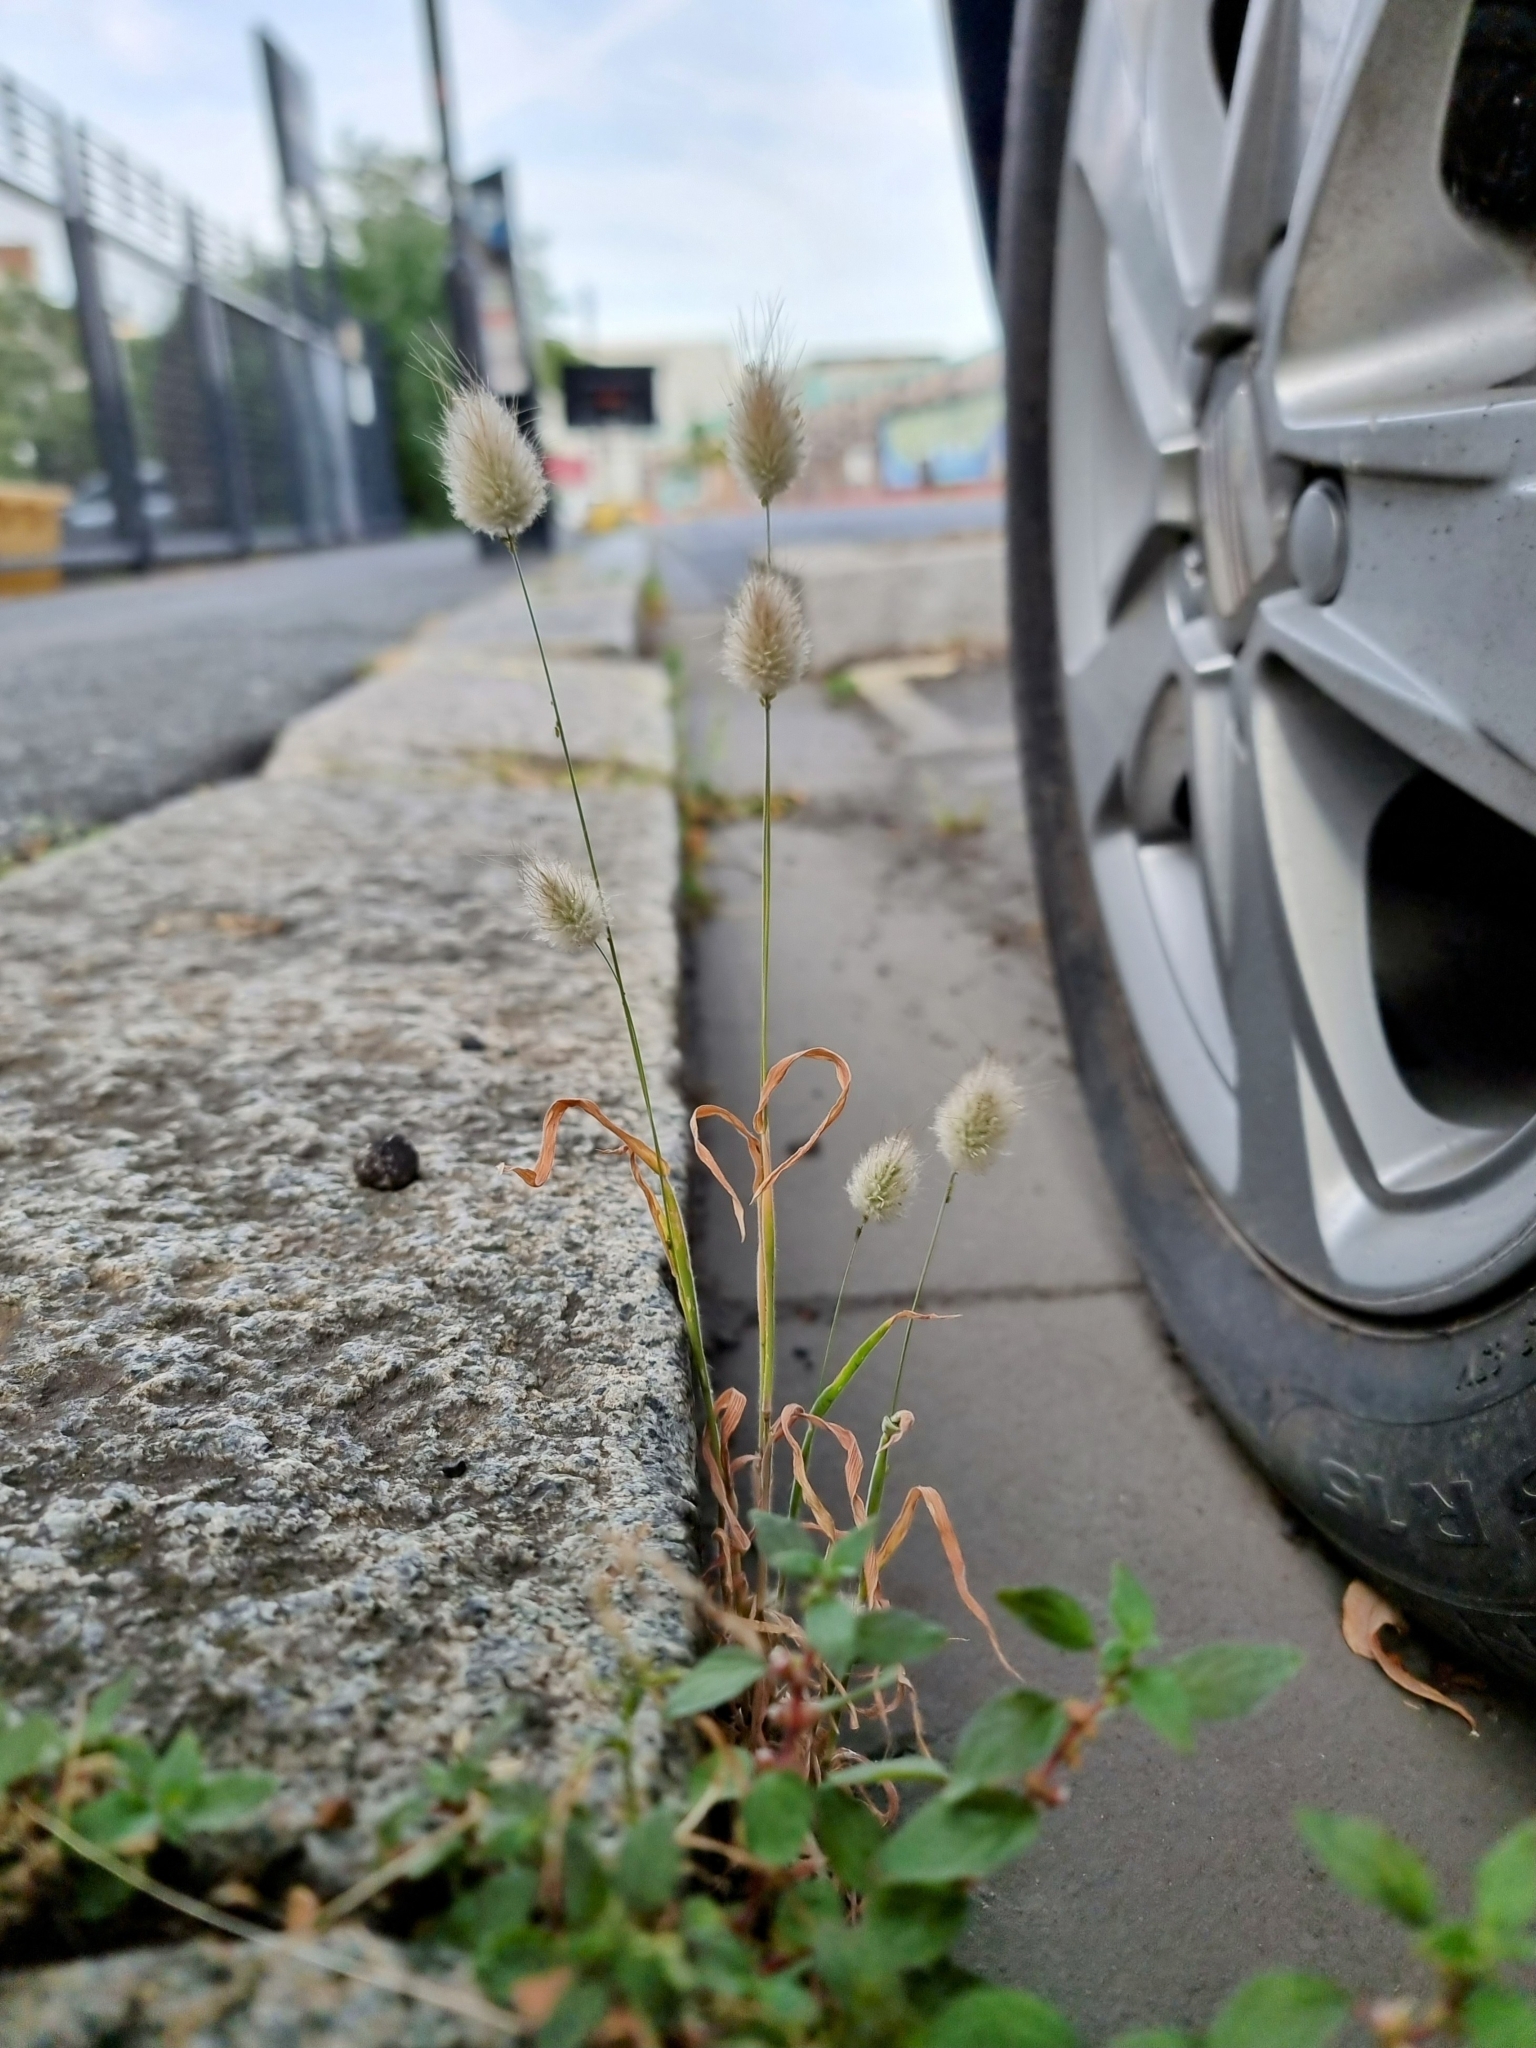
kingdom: Plantae
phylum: Tracheophyta
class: Liliopsida
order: Poales
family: Poaceae
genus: Lagurus
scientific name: Lagurus ovatus
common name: Hare's-tail
